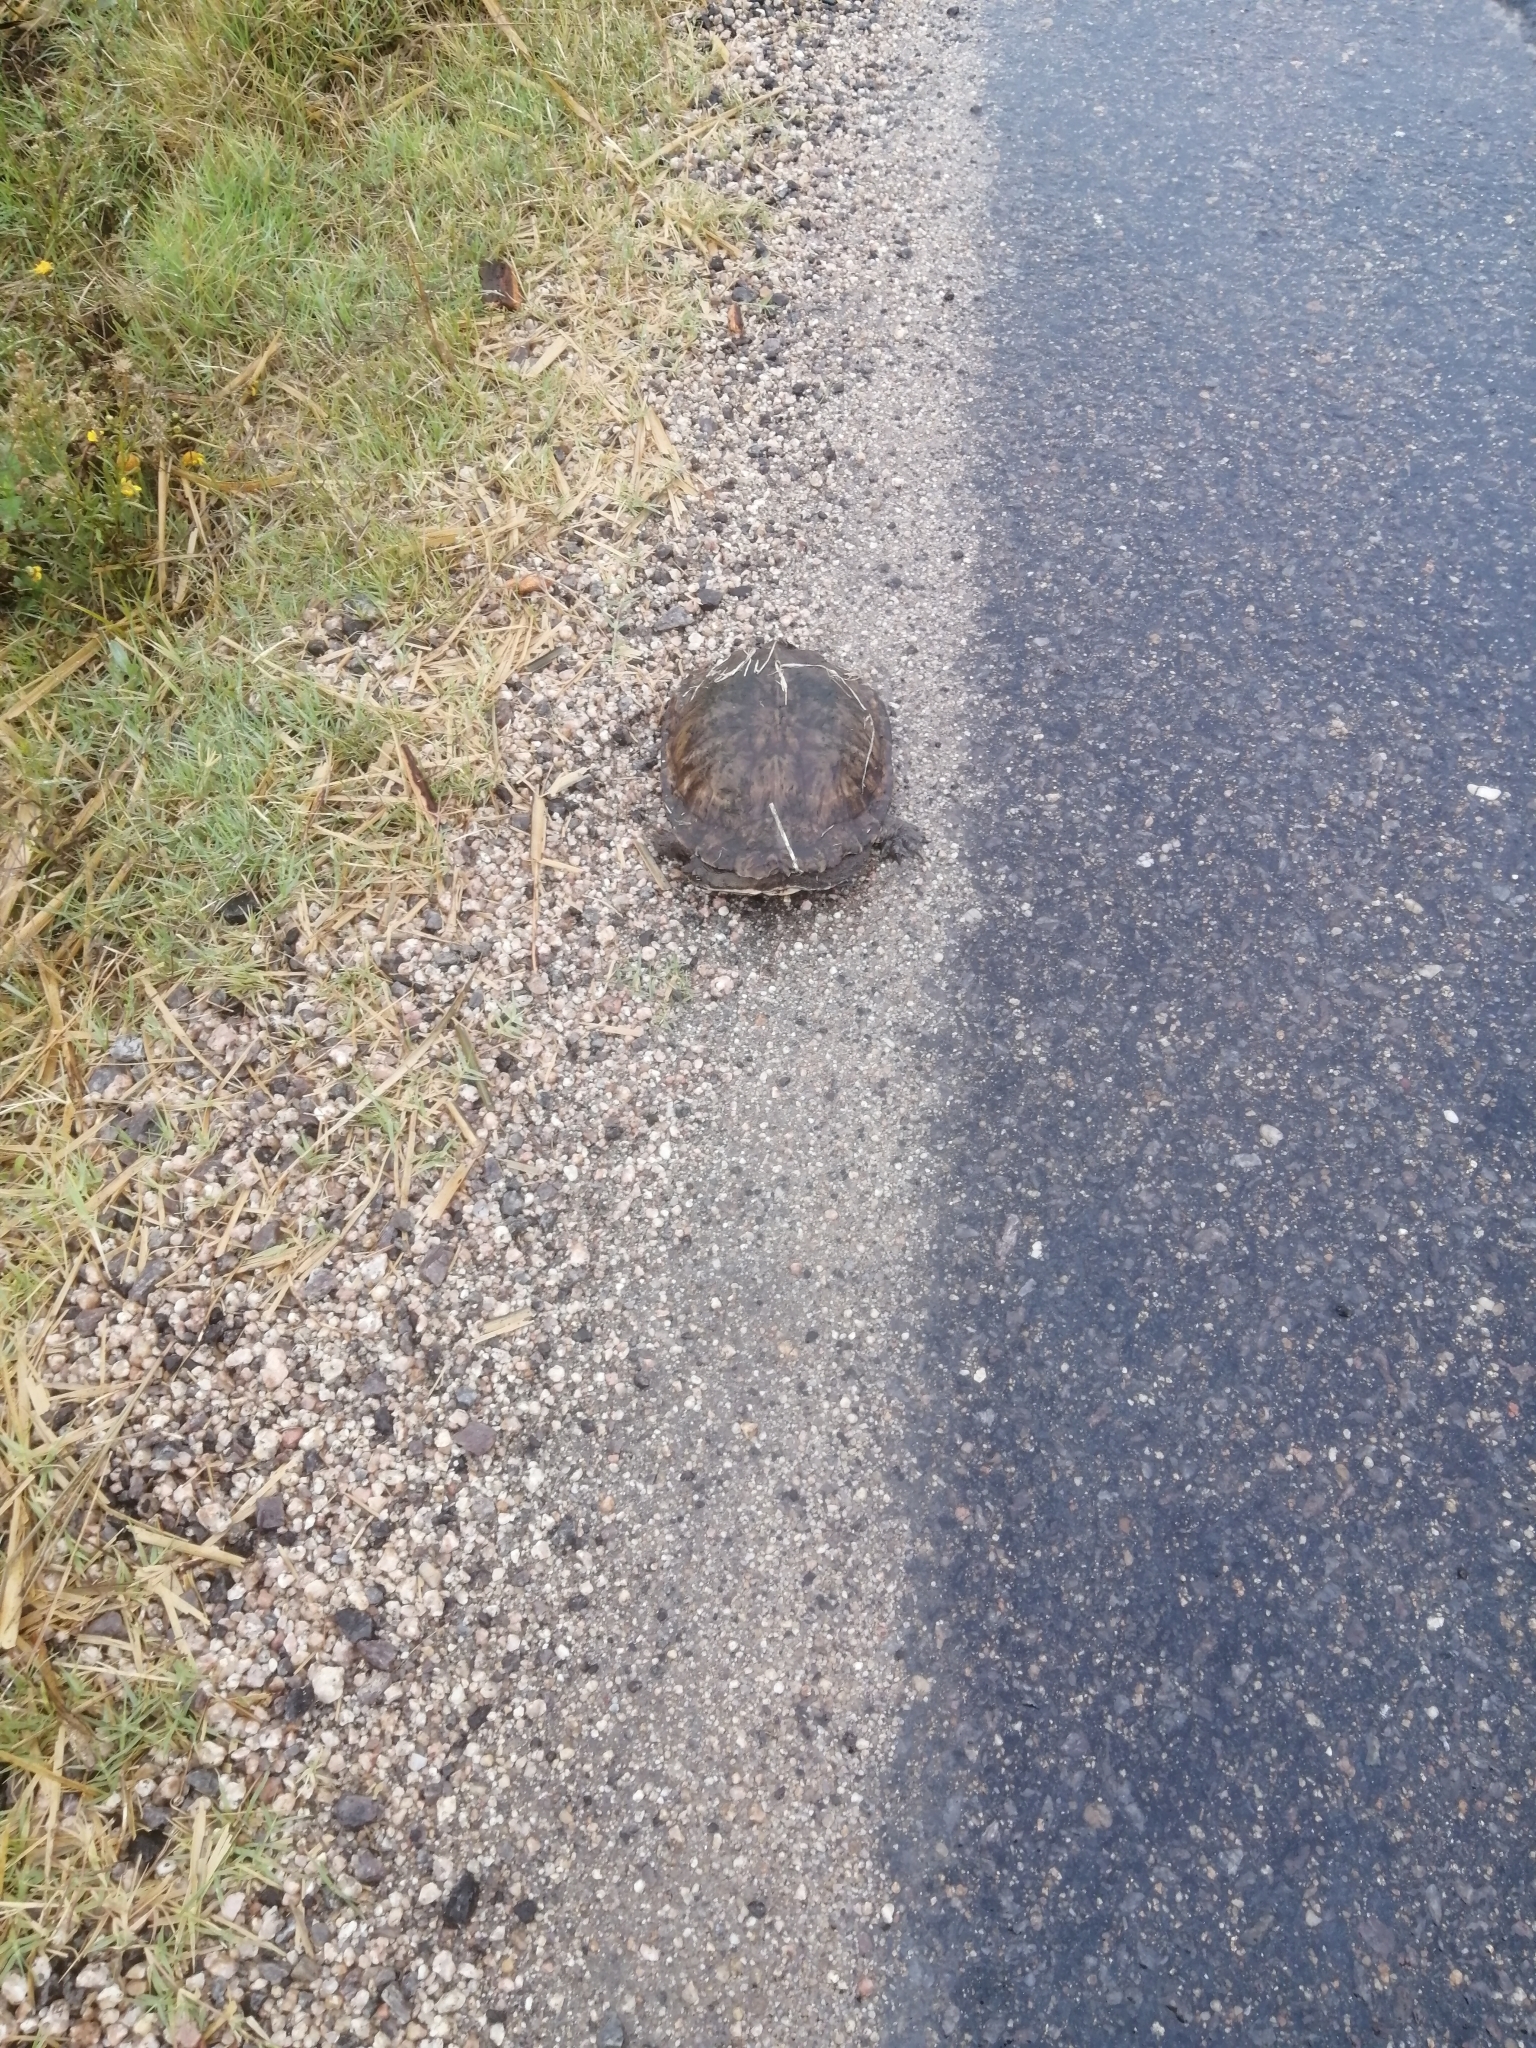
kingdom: Animalia
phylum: Chordata
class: Testudines
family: Chelidae
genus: Hydromedusa
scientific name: Hydromedusa tectifera
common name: Argentine snake-necked turtle
